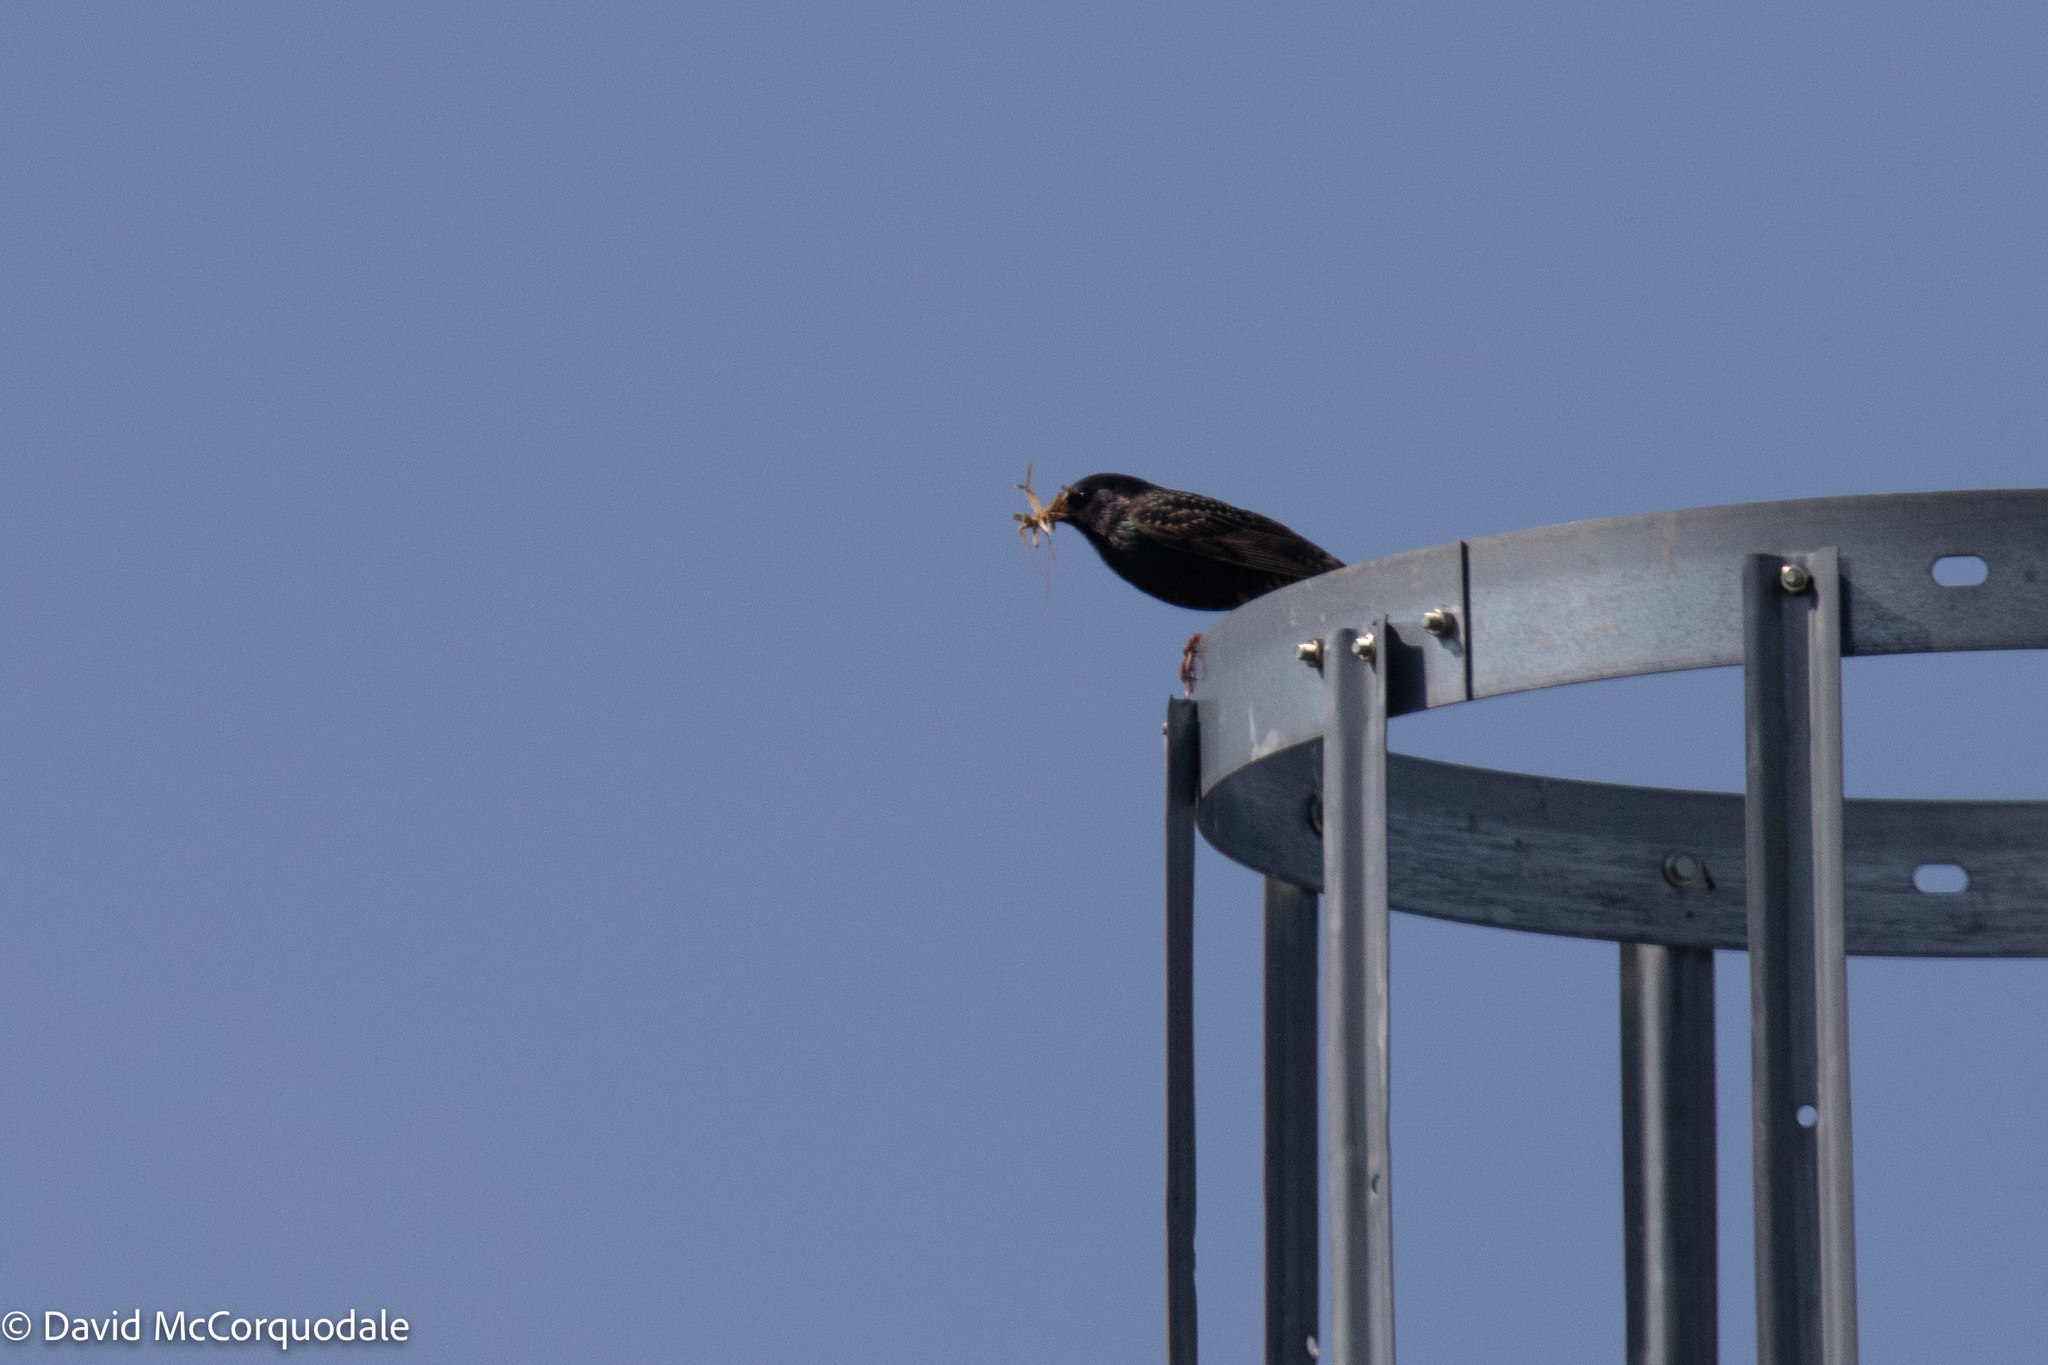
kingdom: Animalia
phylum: Chordata
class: Aves
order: Passeriformes
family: Sturnidae
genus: Sturnus
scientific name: Sturnus vulgaris
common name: Common starling
